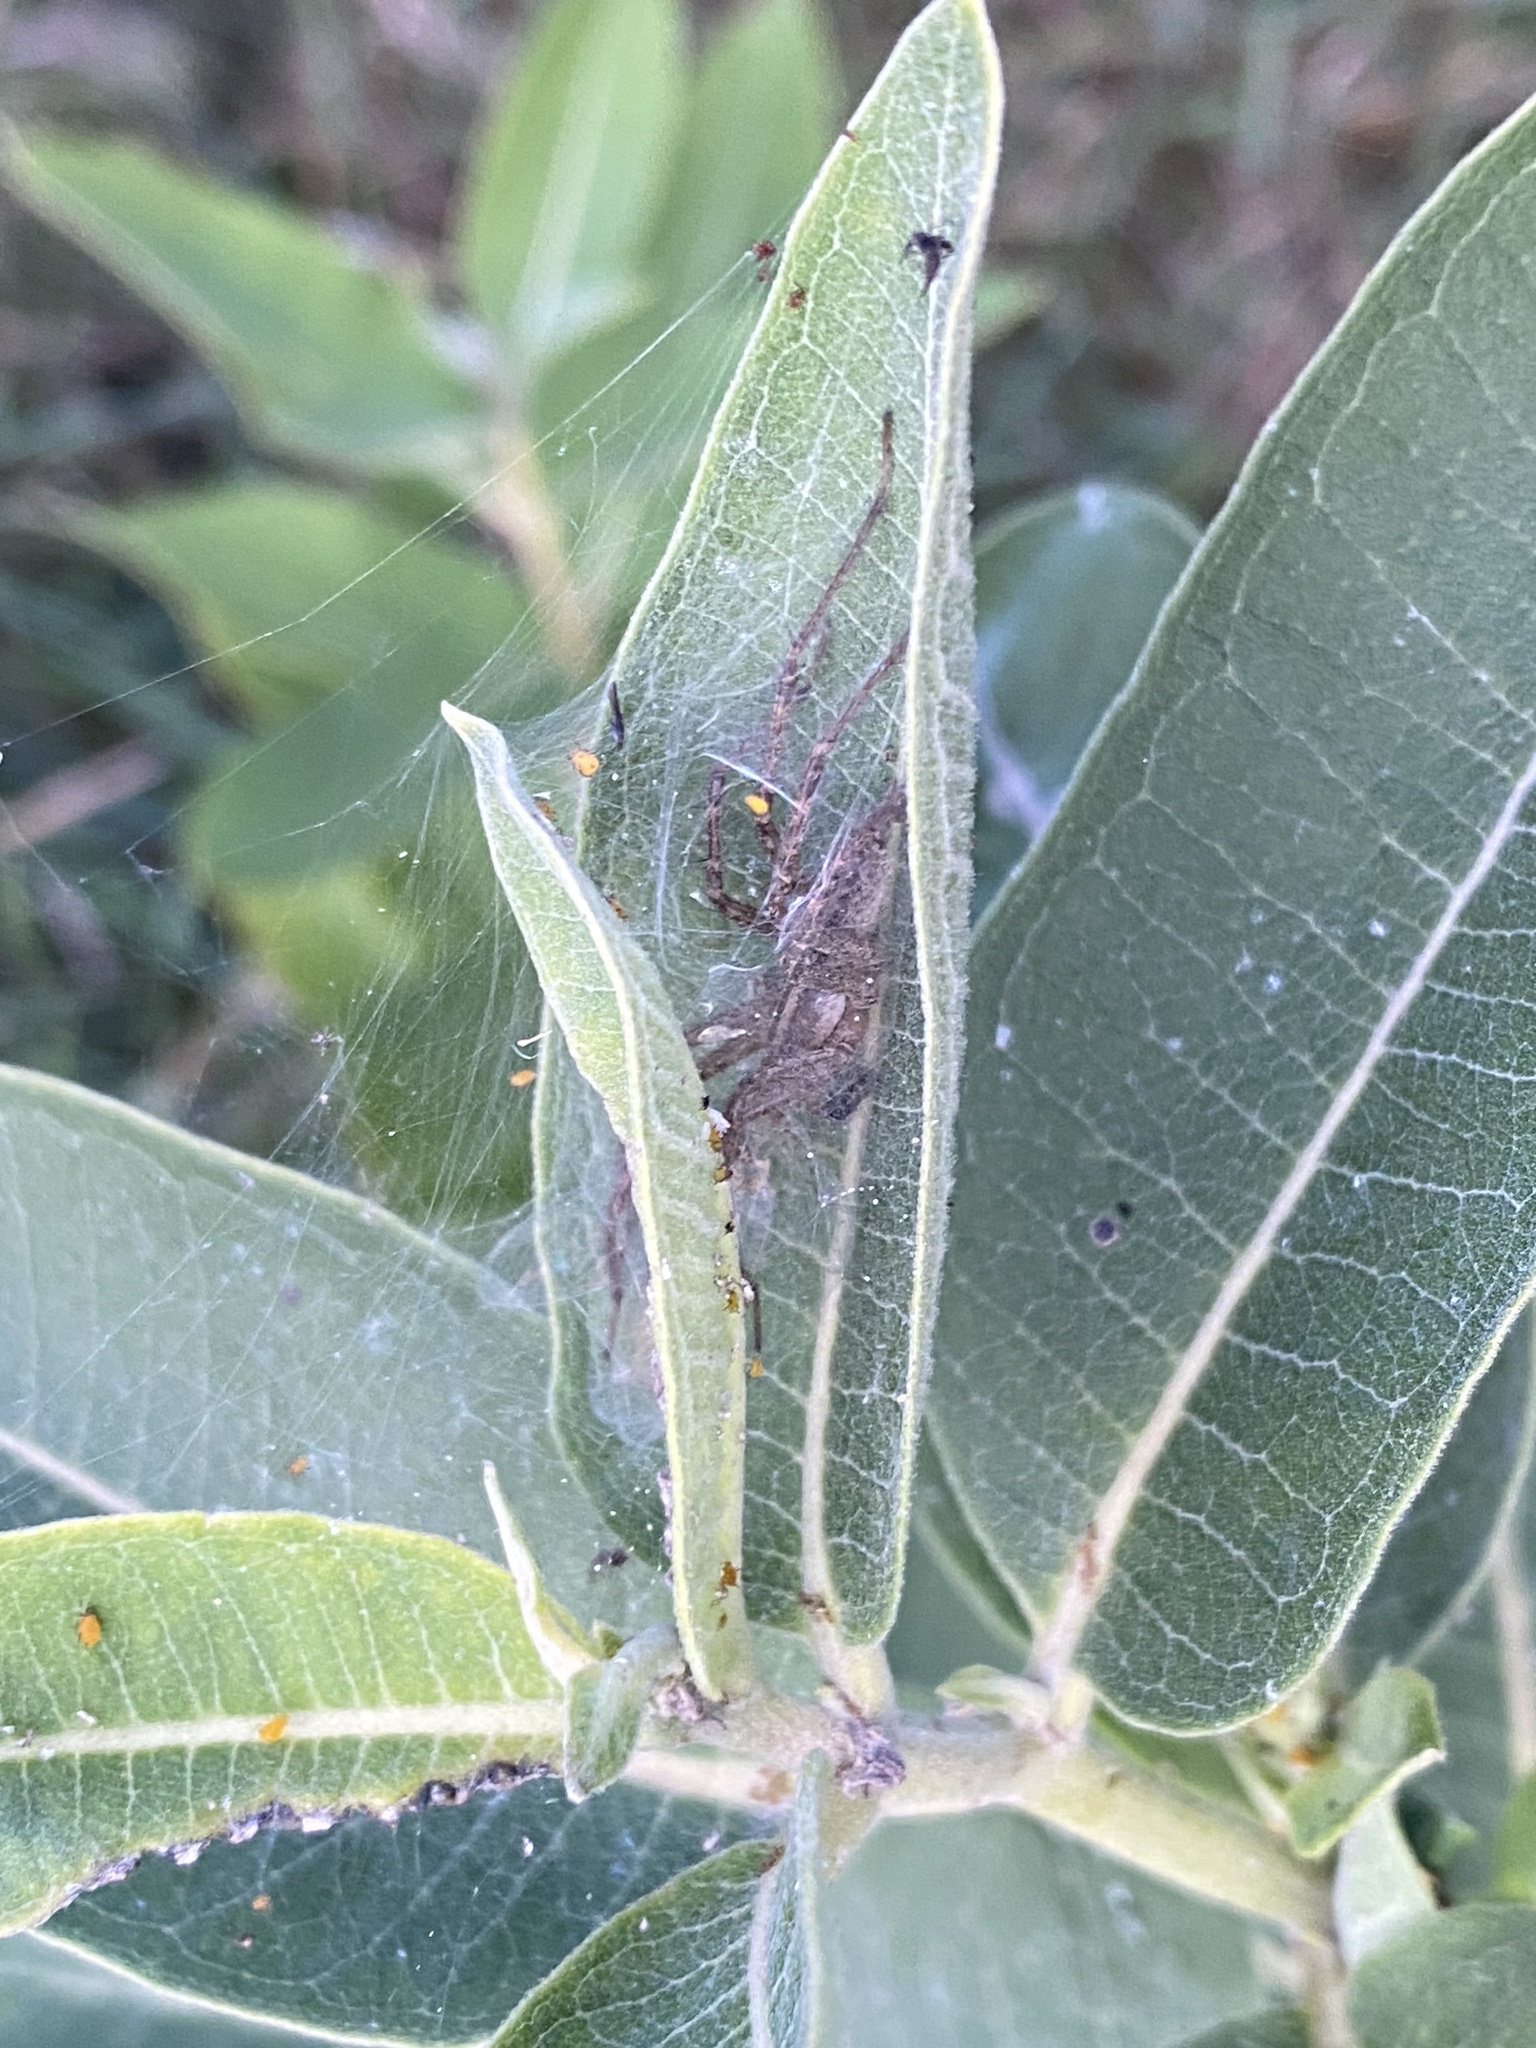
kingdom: Animalia
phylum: Arthropoda
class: Arachnida
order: Araneae
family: Agelenidae
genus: Agelenopsis
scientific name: Agelenopsis
